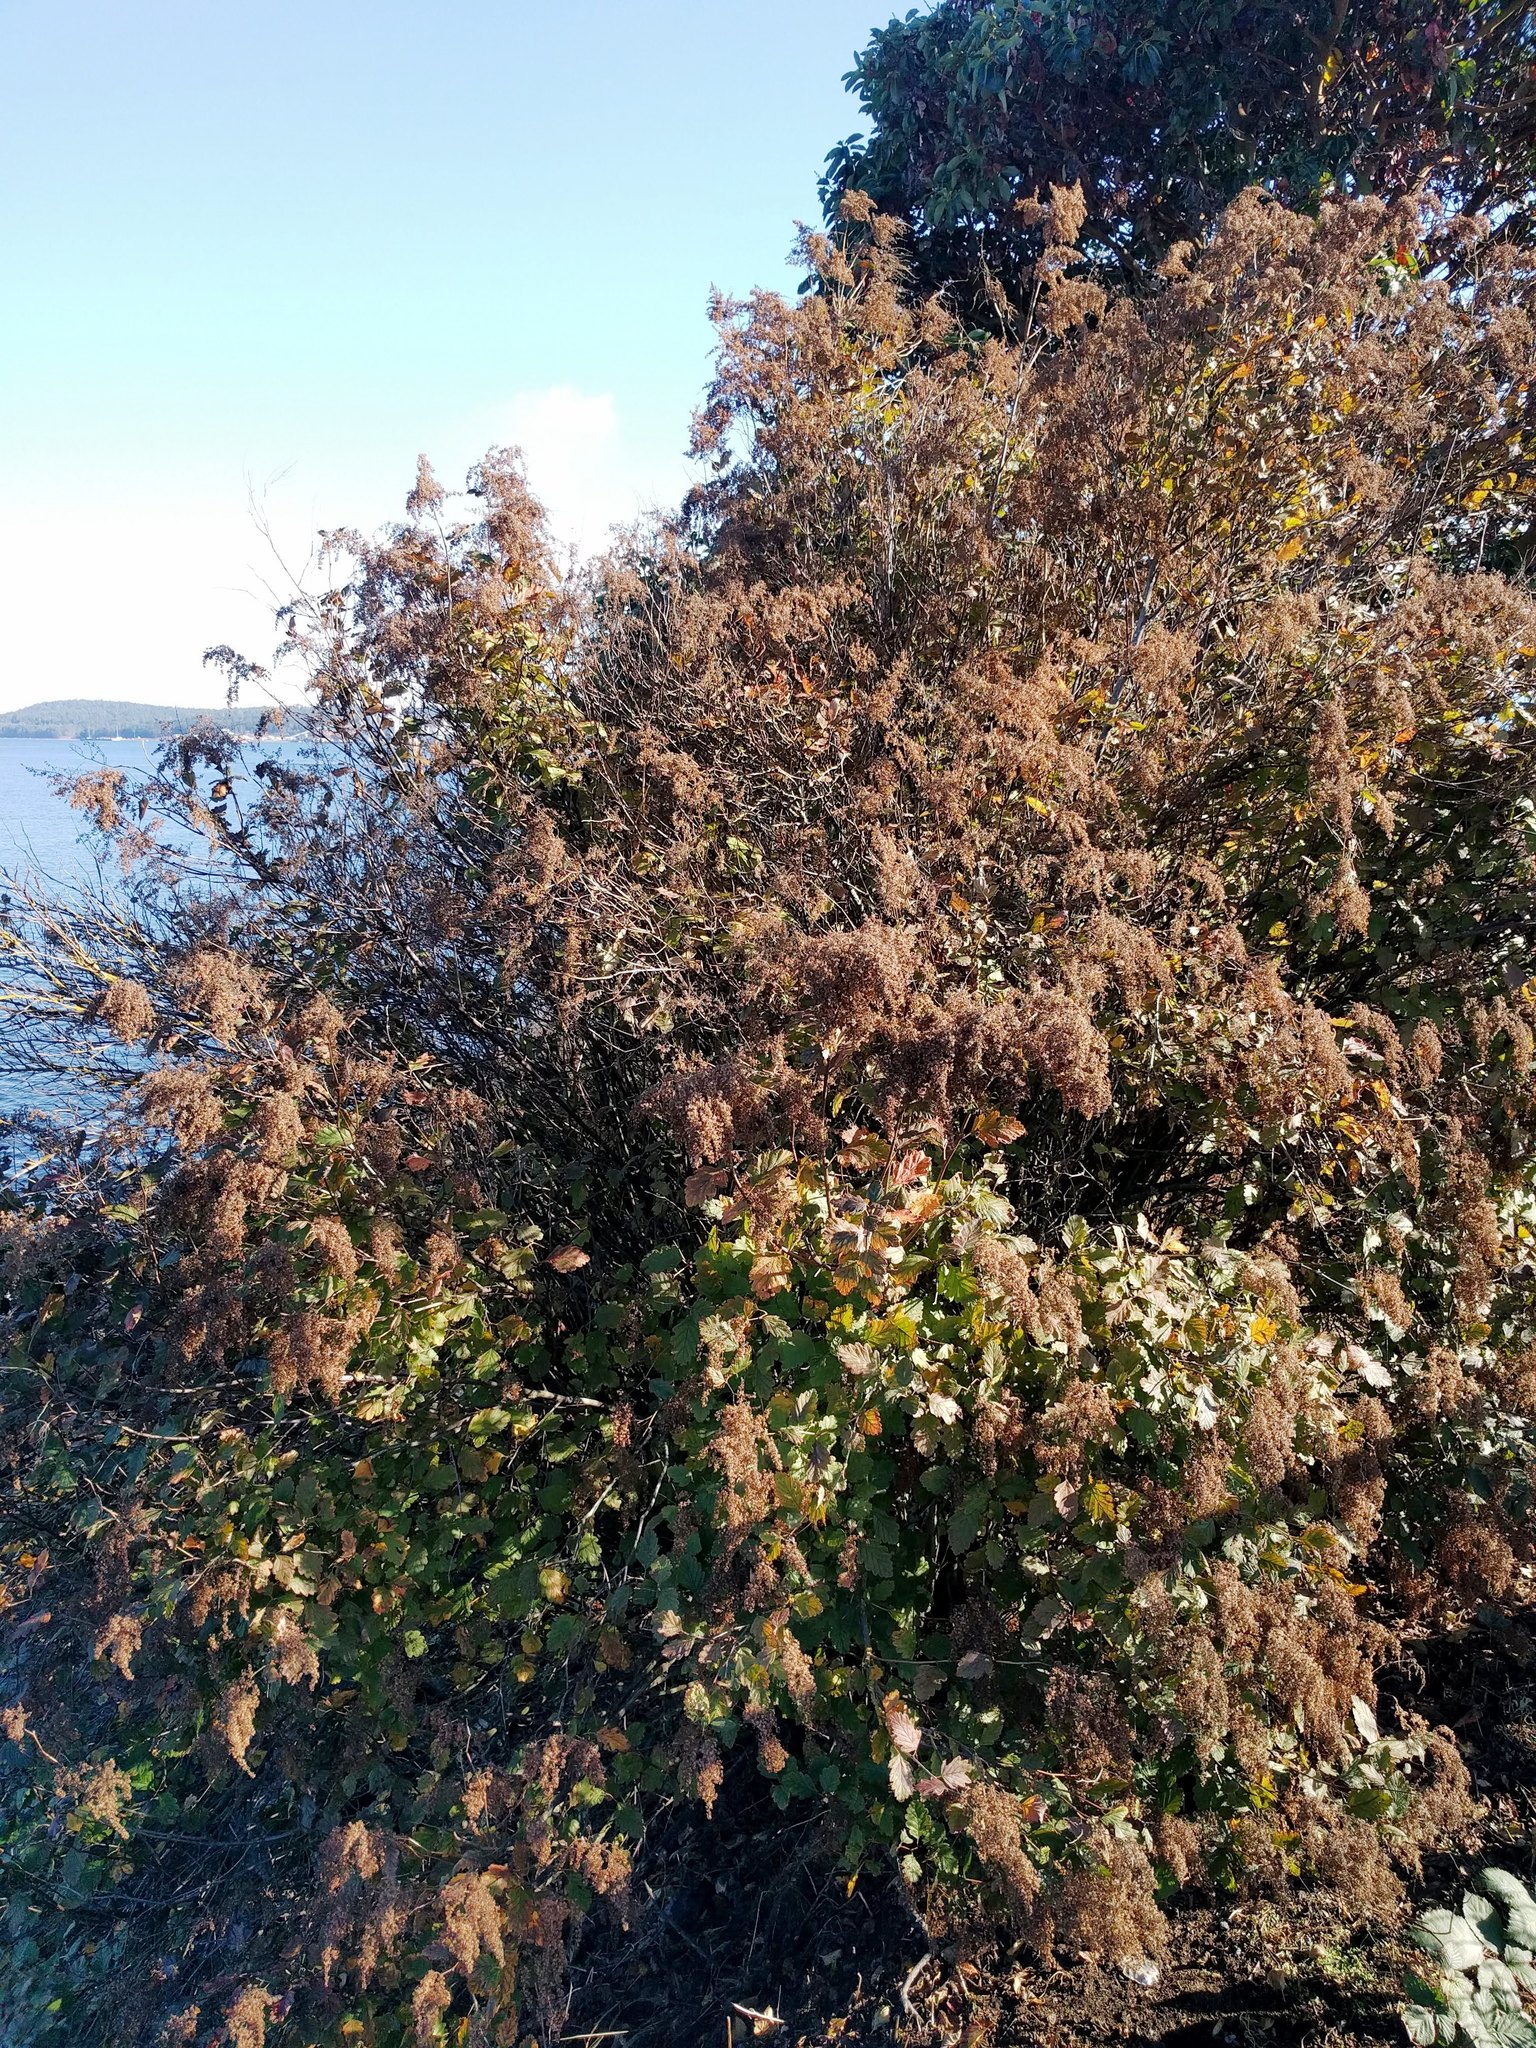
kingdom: Plantae
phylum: Tracheophyta
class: Magnoliopsida
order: Rosales
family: Rosaceae
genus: Holodiscus
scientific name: Holodiscus discolor
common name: Oceanspray
